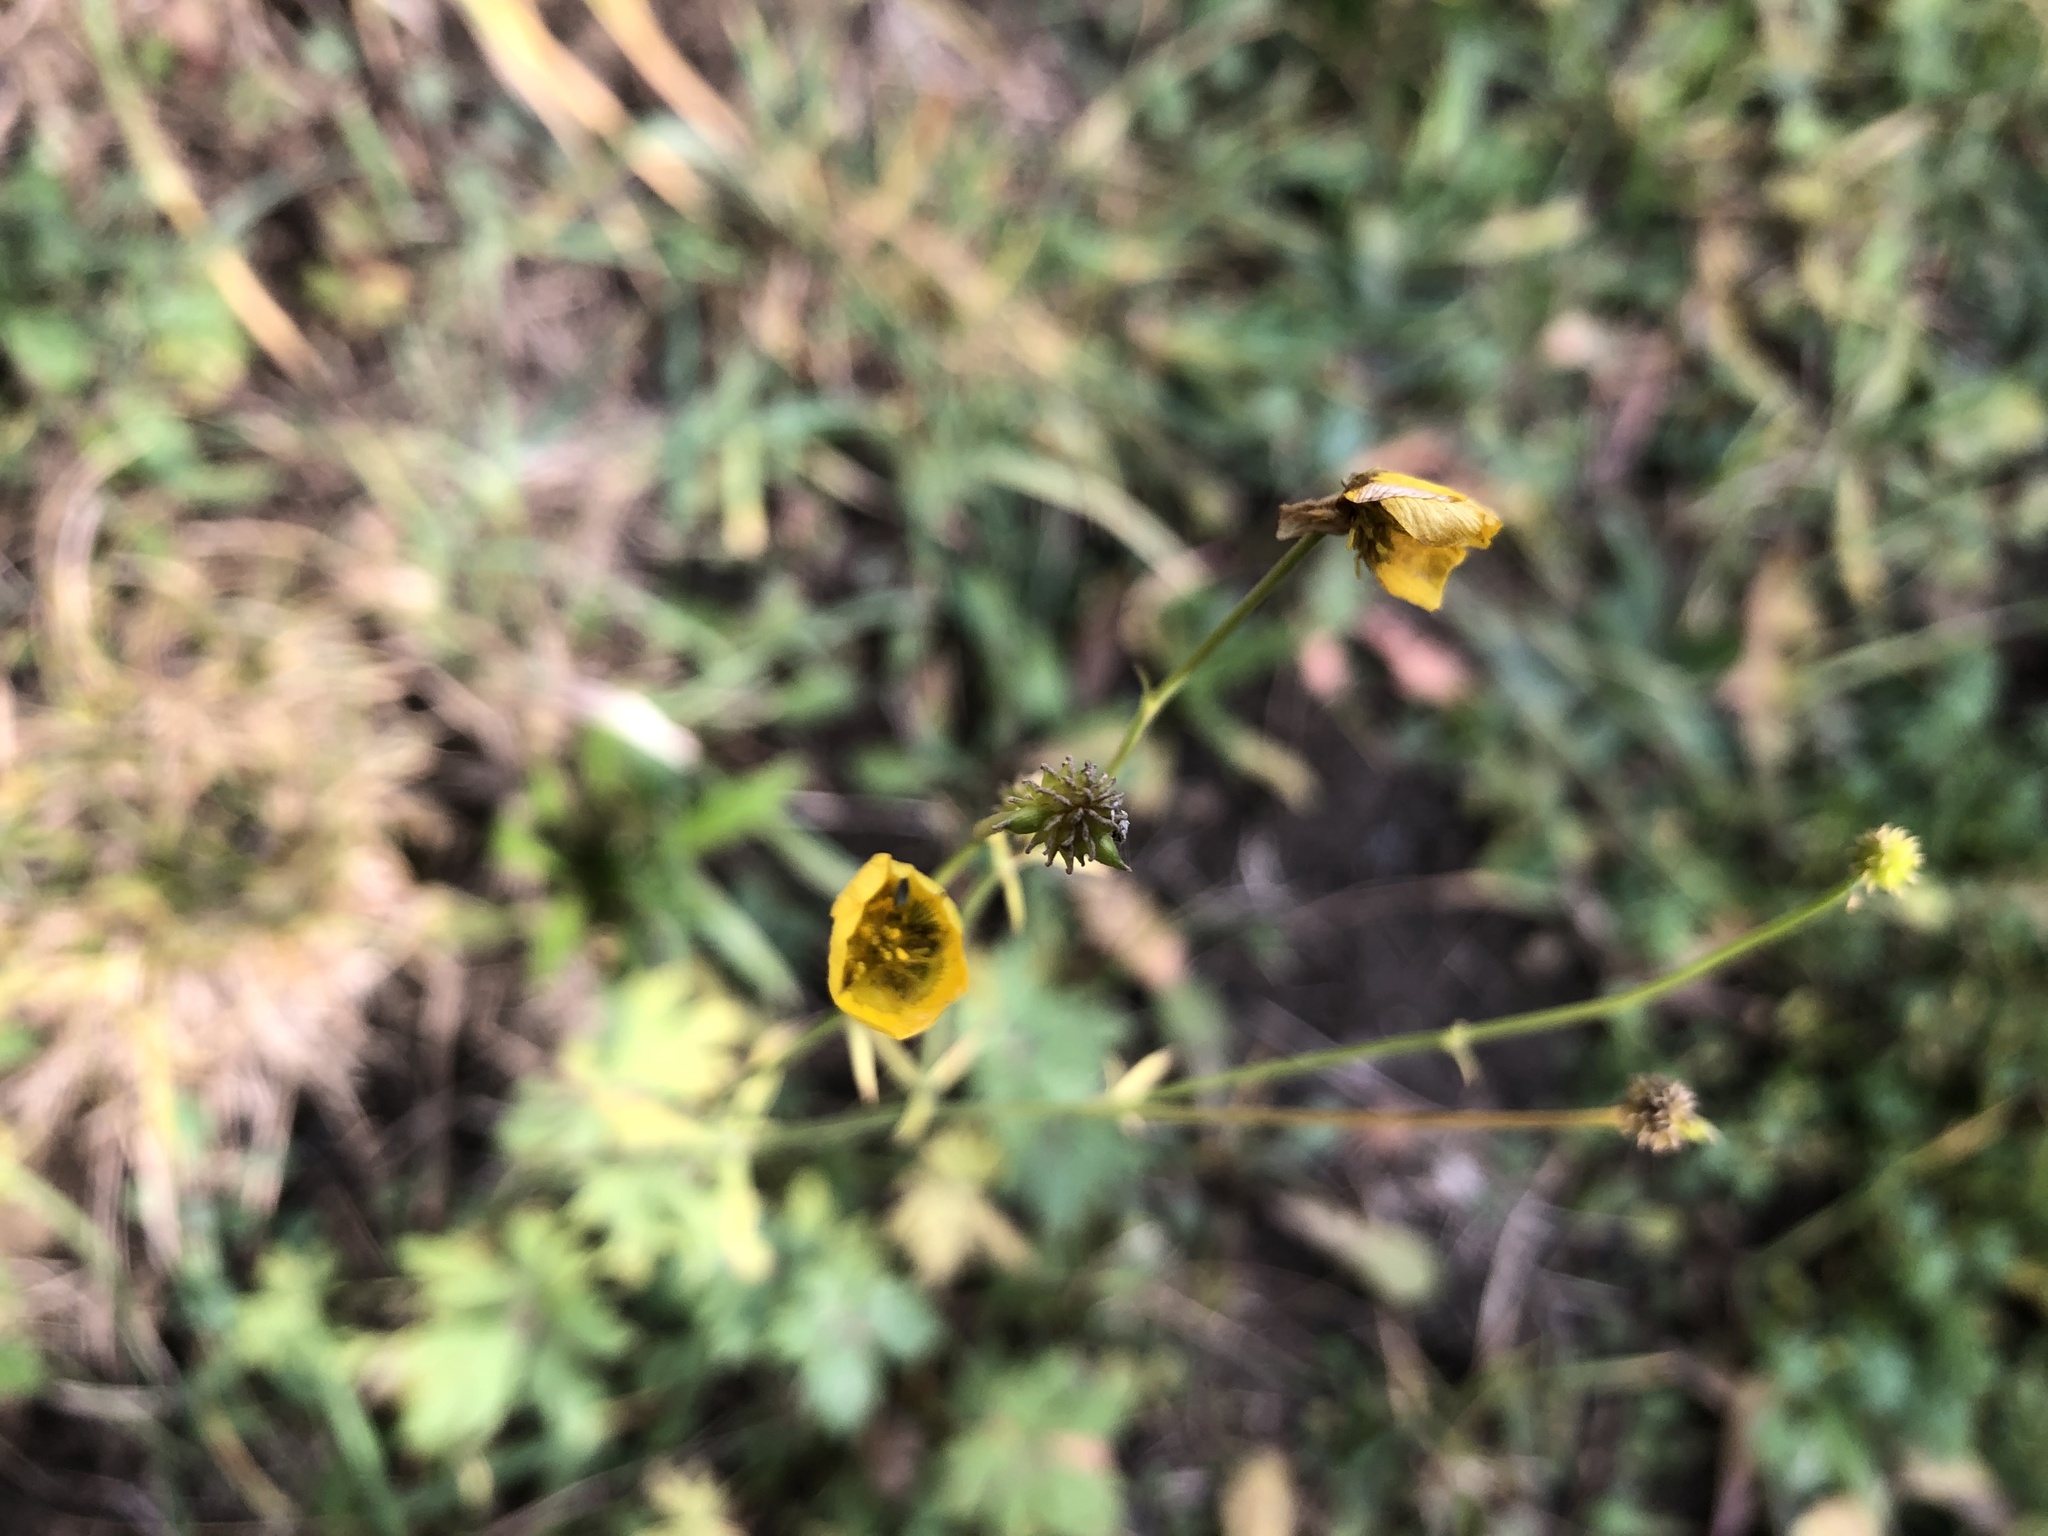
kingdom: Plantae
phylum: Tracheophyta
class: Magnoliopsida
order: Ranunculales
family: Ranunculaceae
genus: Ranunculus
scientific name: Ranunculus acris
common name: Meadow buttercup
